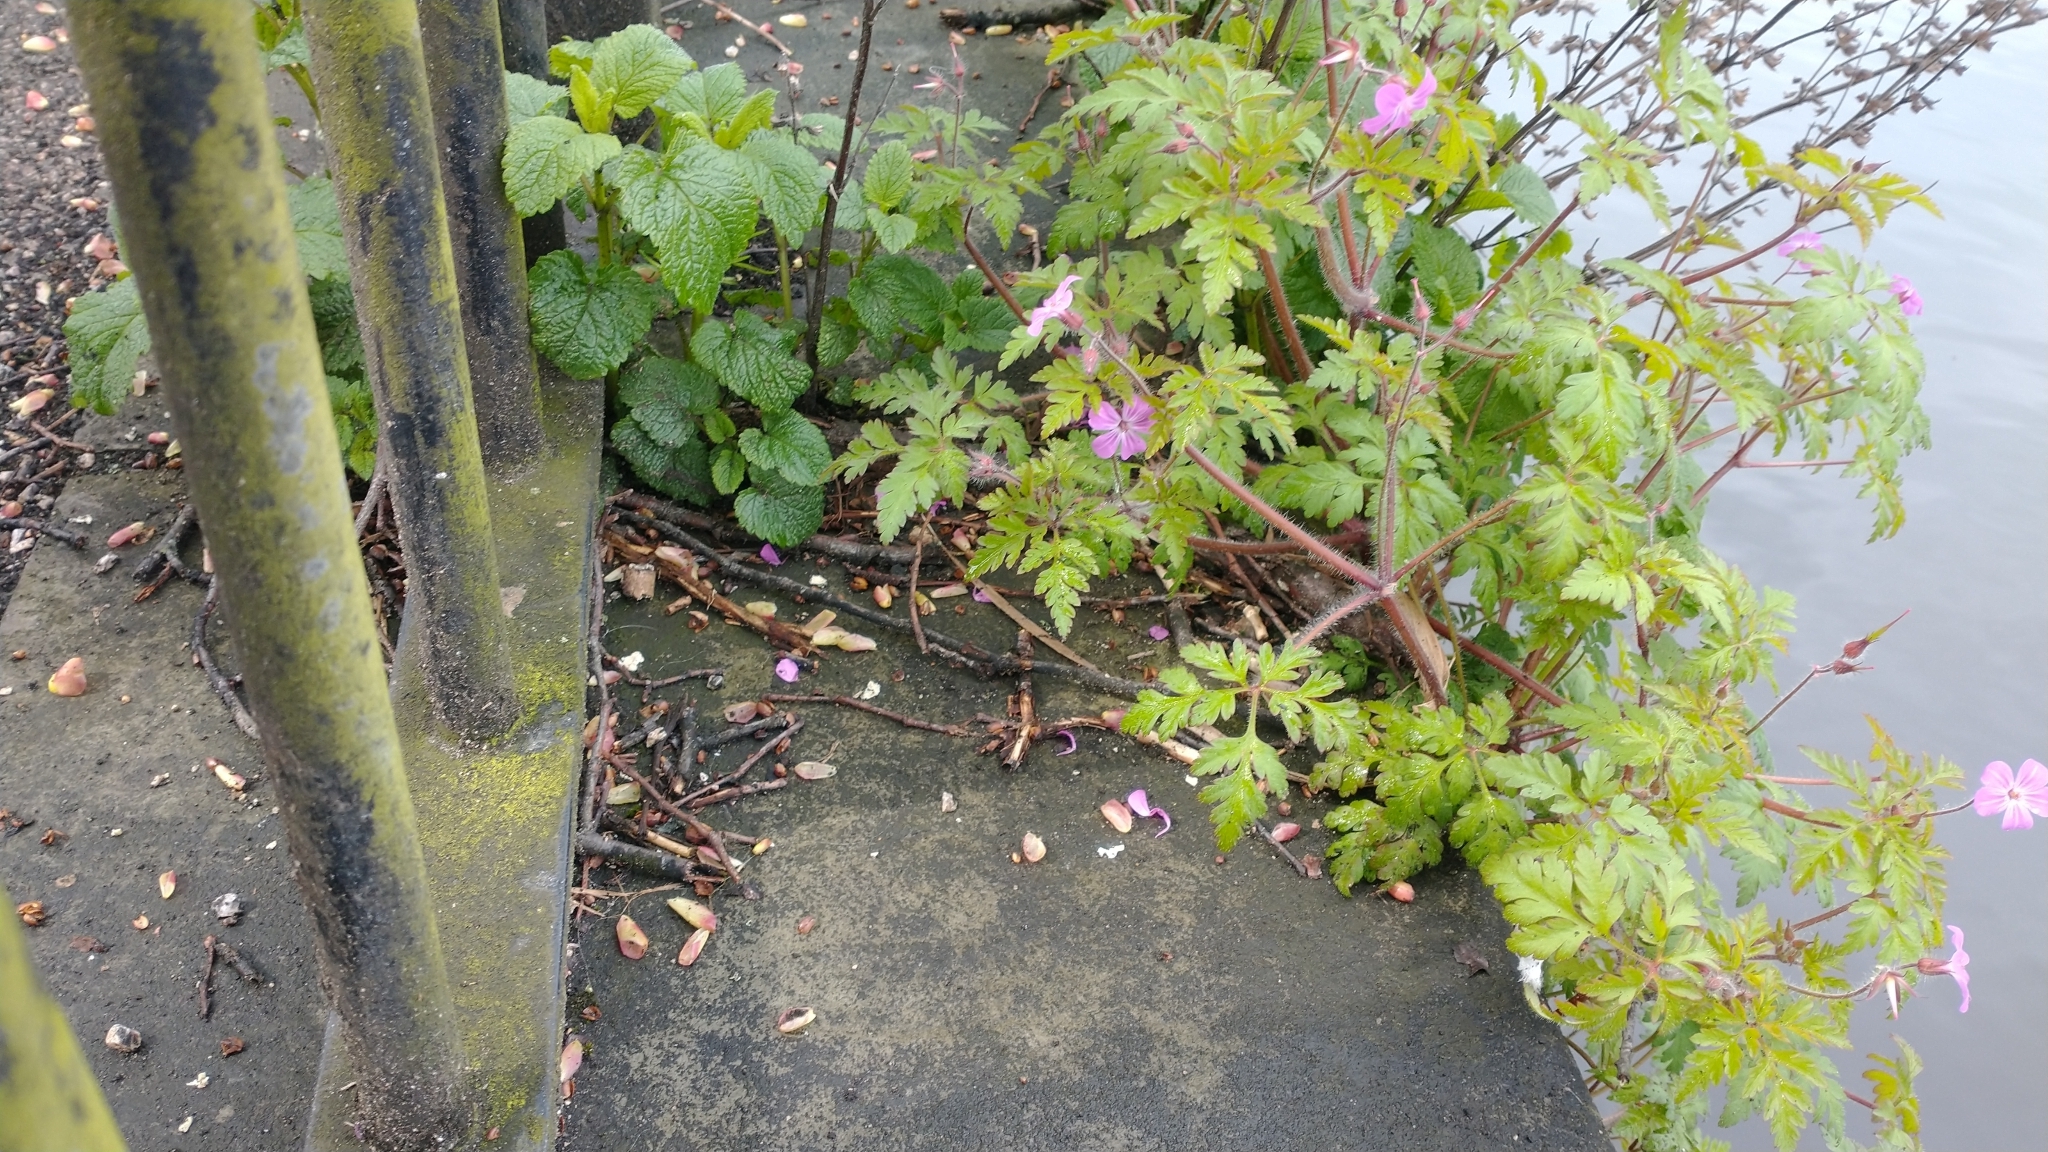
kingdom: Plantae
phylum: Tracheophyta
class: Magnoliopsida
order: Geraniales
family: Geraniaceae
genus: Geranium
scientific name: Geranium robertianum
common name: Herb-robert
